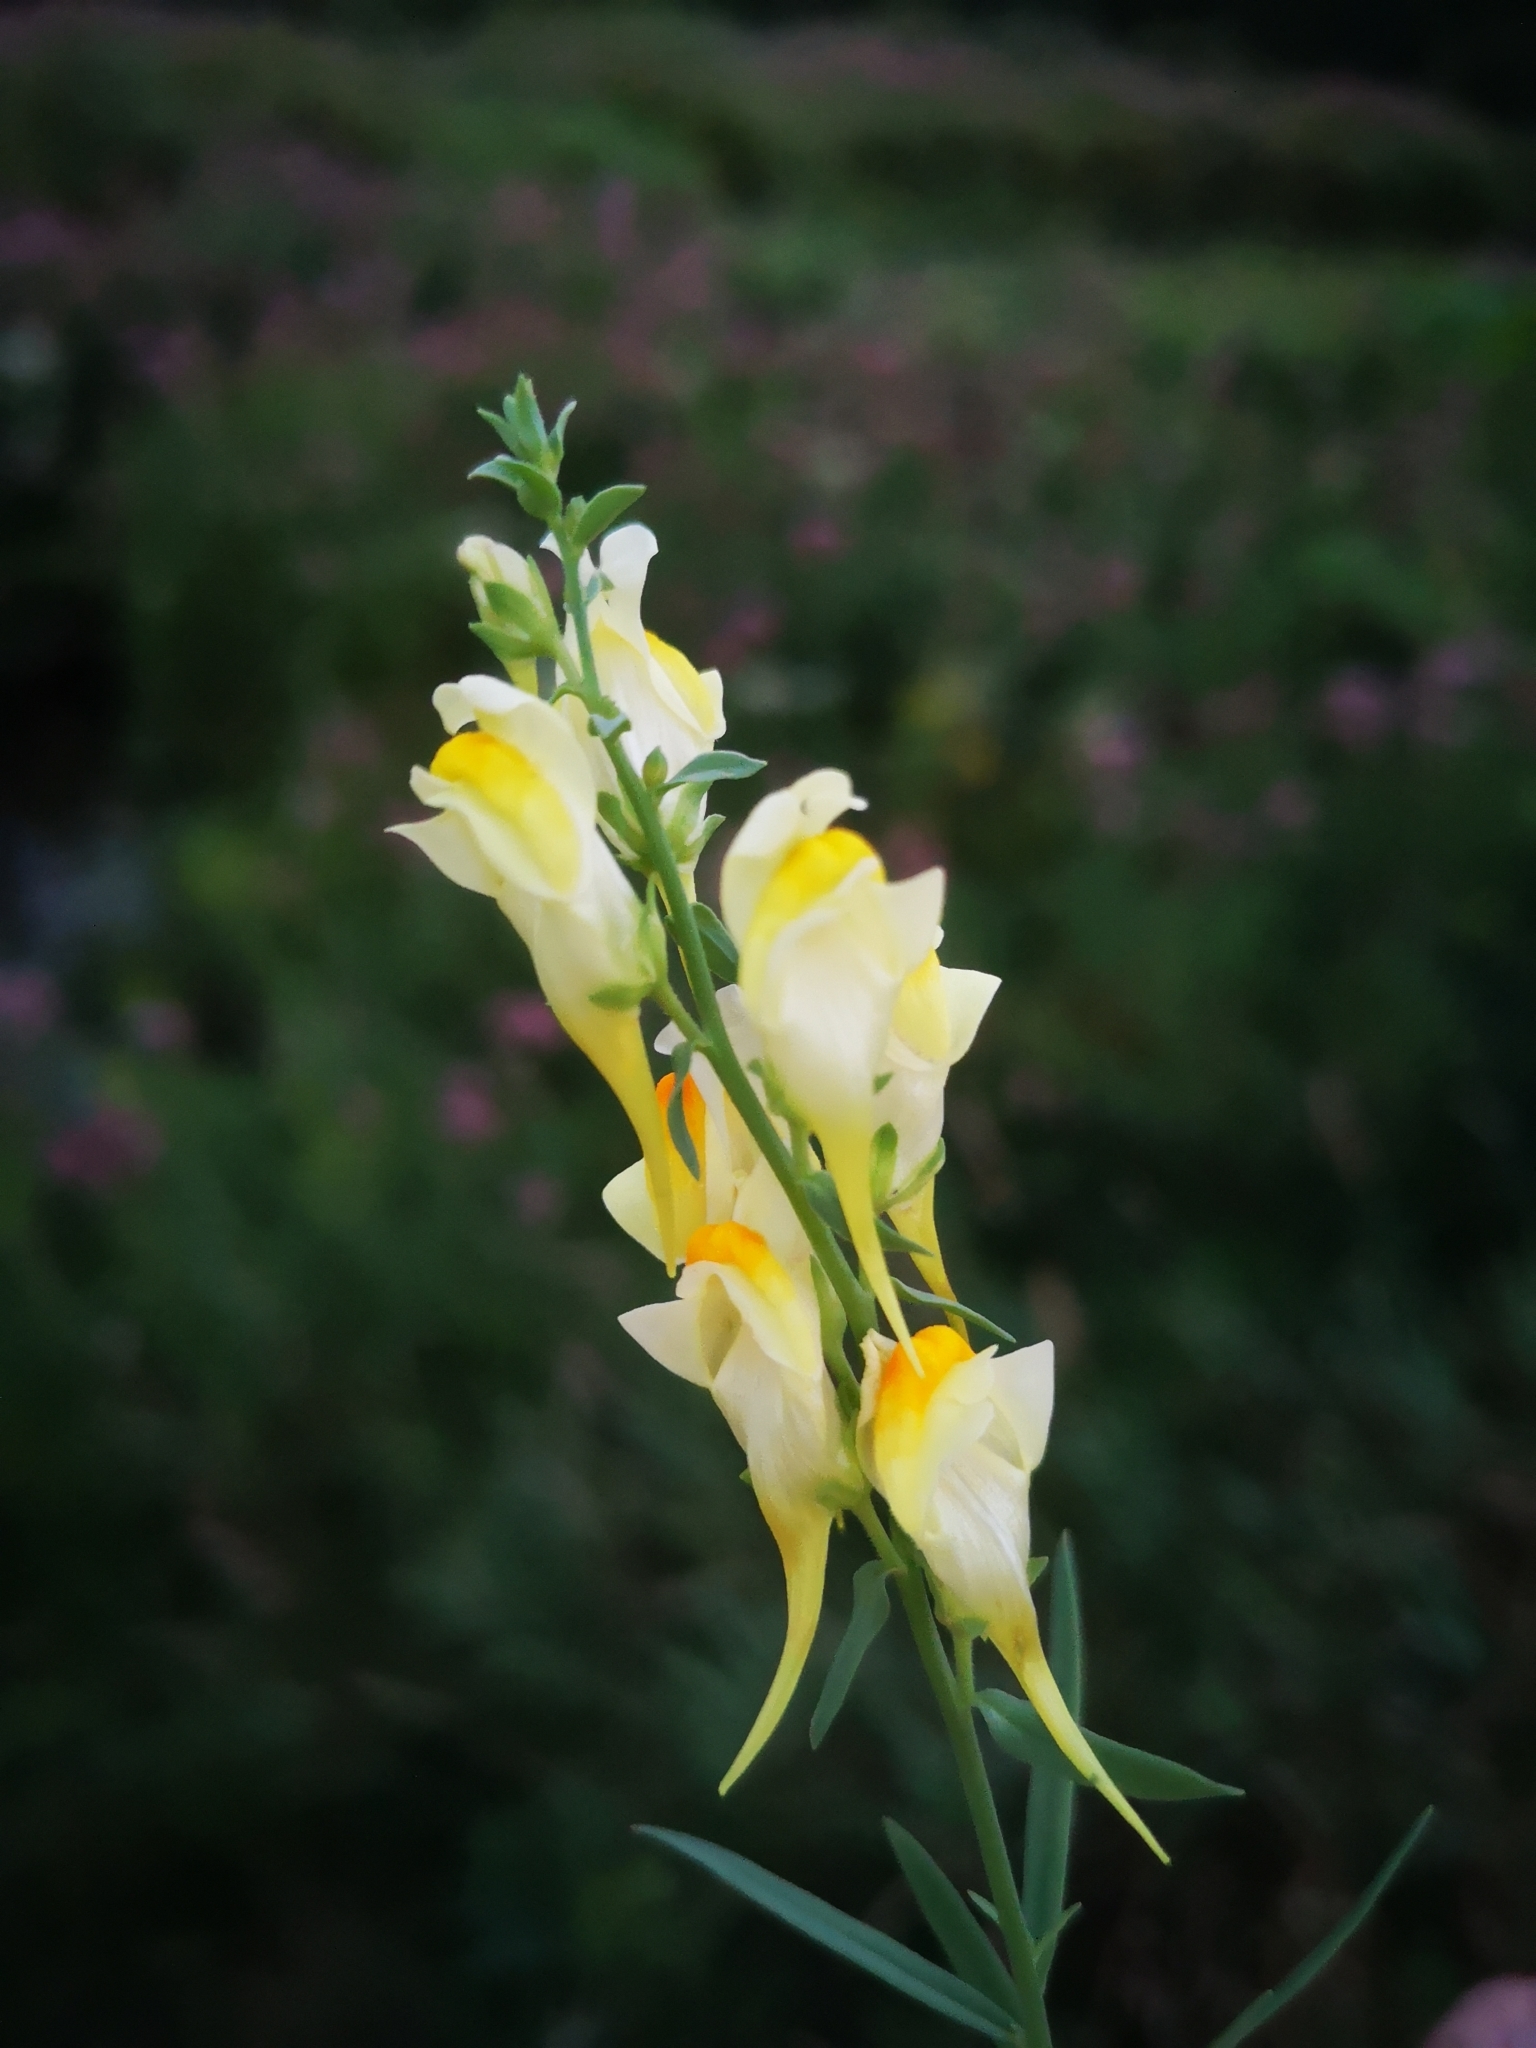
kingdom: Plantae
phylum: Tracheophyta
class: Magnoliopsida
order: Lamiales
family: Plantaginaceae
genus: Linaria
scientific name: Linaria vulgaris
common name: Butter and eggs
